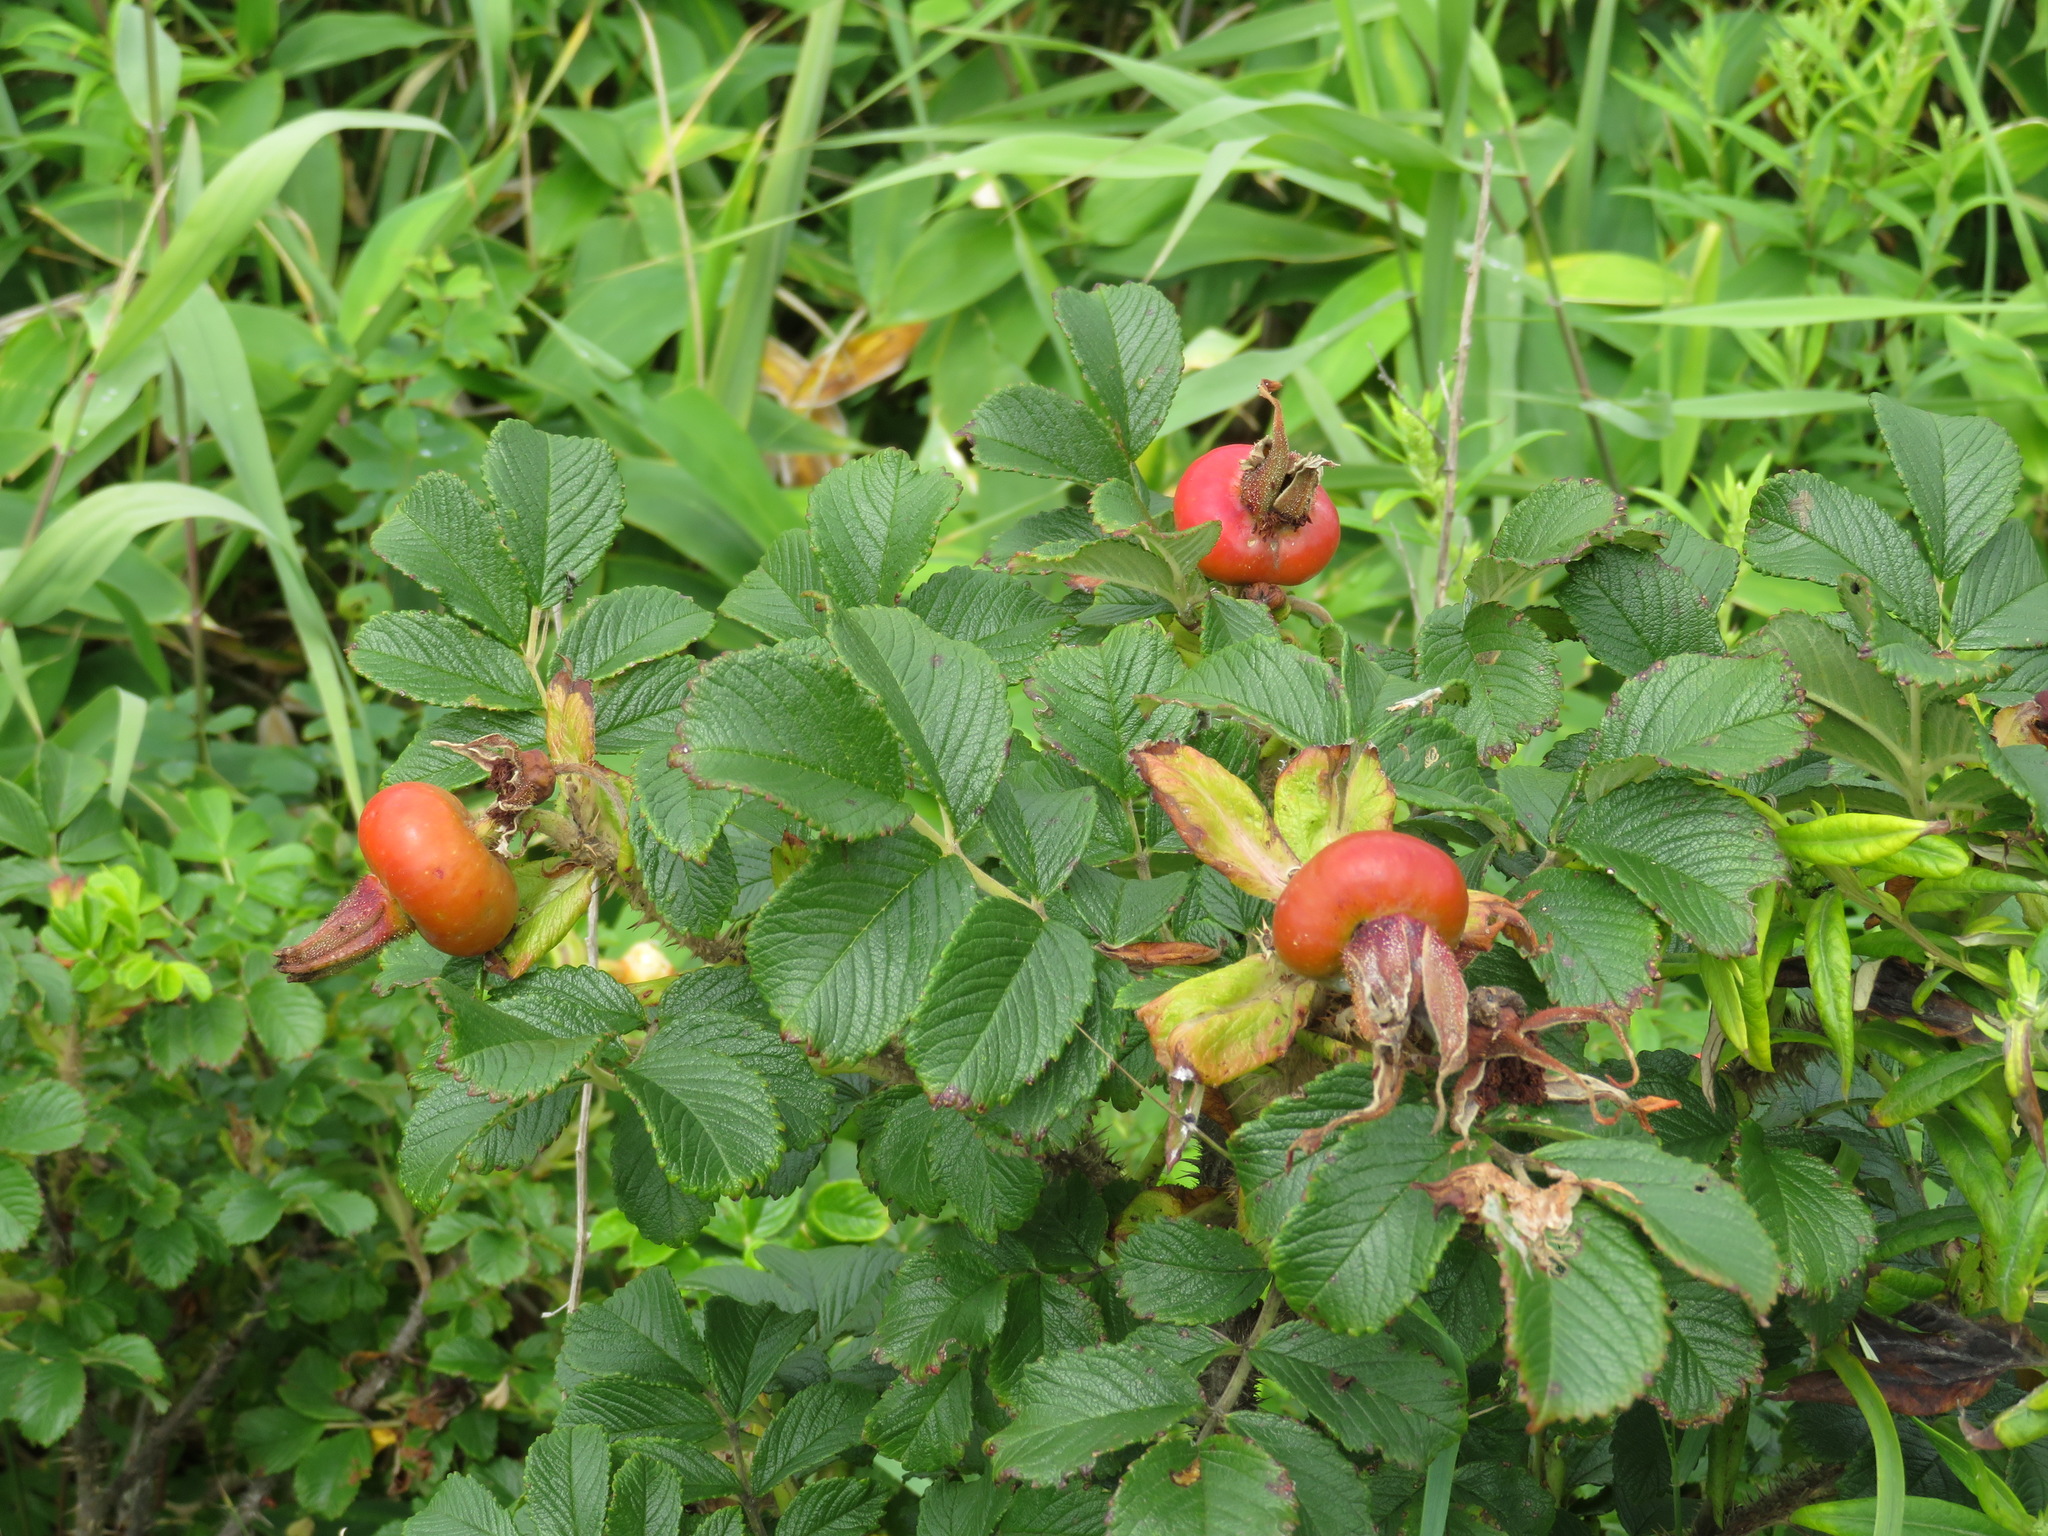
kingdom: Plantae
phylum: Tracheophyta
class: Magnoliopsida
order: Rosales
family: Rosaceae
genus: Rosa
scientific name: Rosa rugosa
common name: Japanese rose
